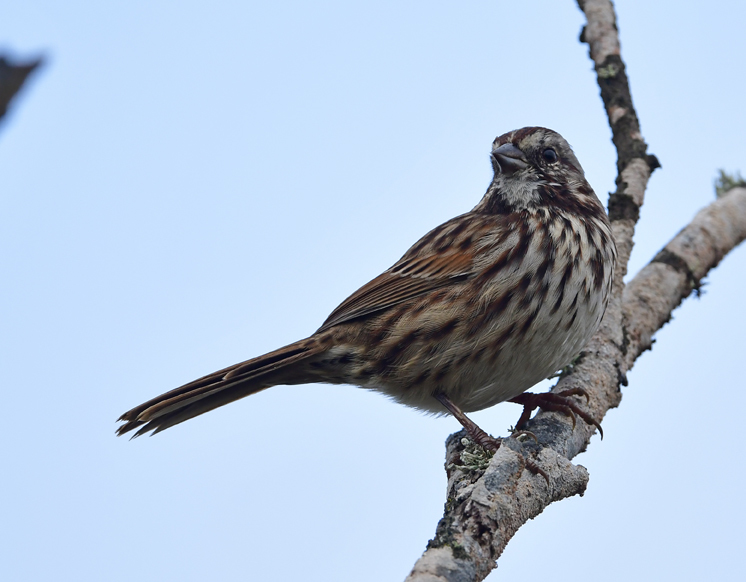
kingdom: Animalia
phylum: Chordata
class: Aves
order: Passeriformes
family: Passerellidae
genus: Melospiza
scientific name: Melospiza melodia
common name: Song sparrow
